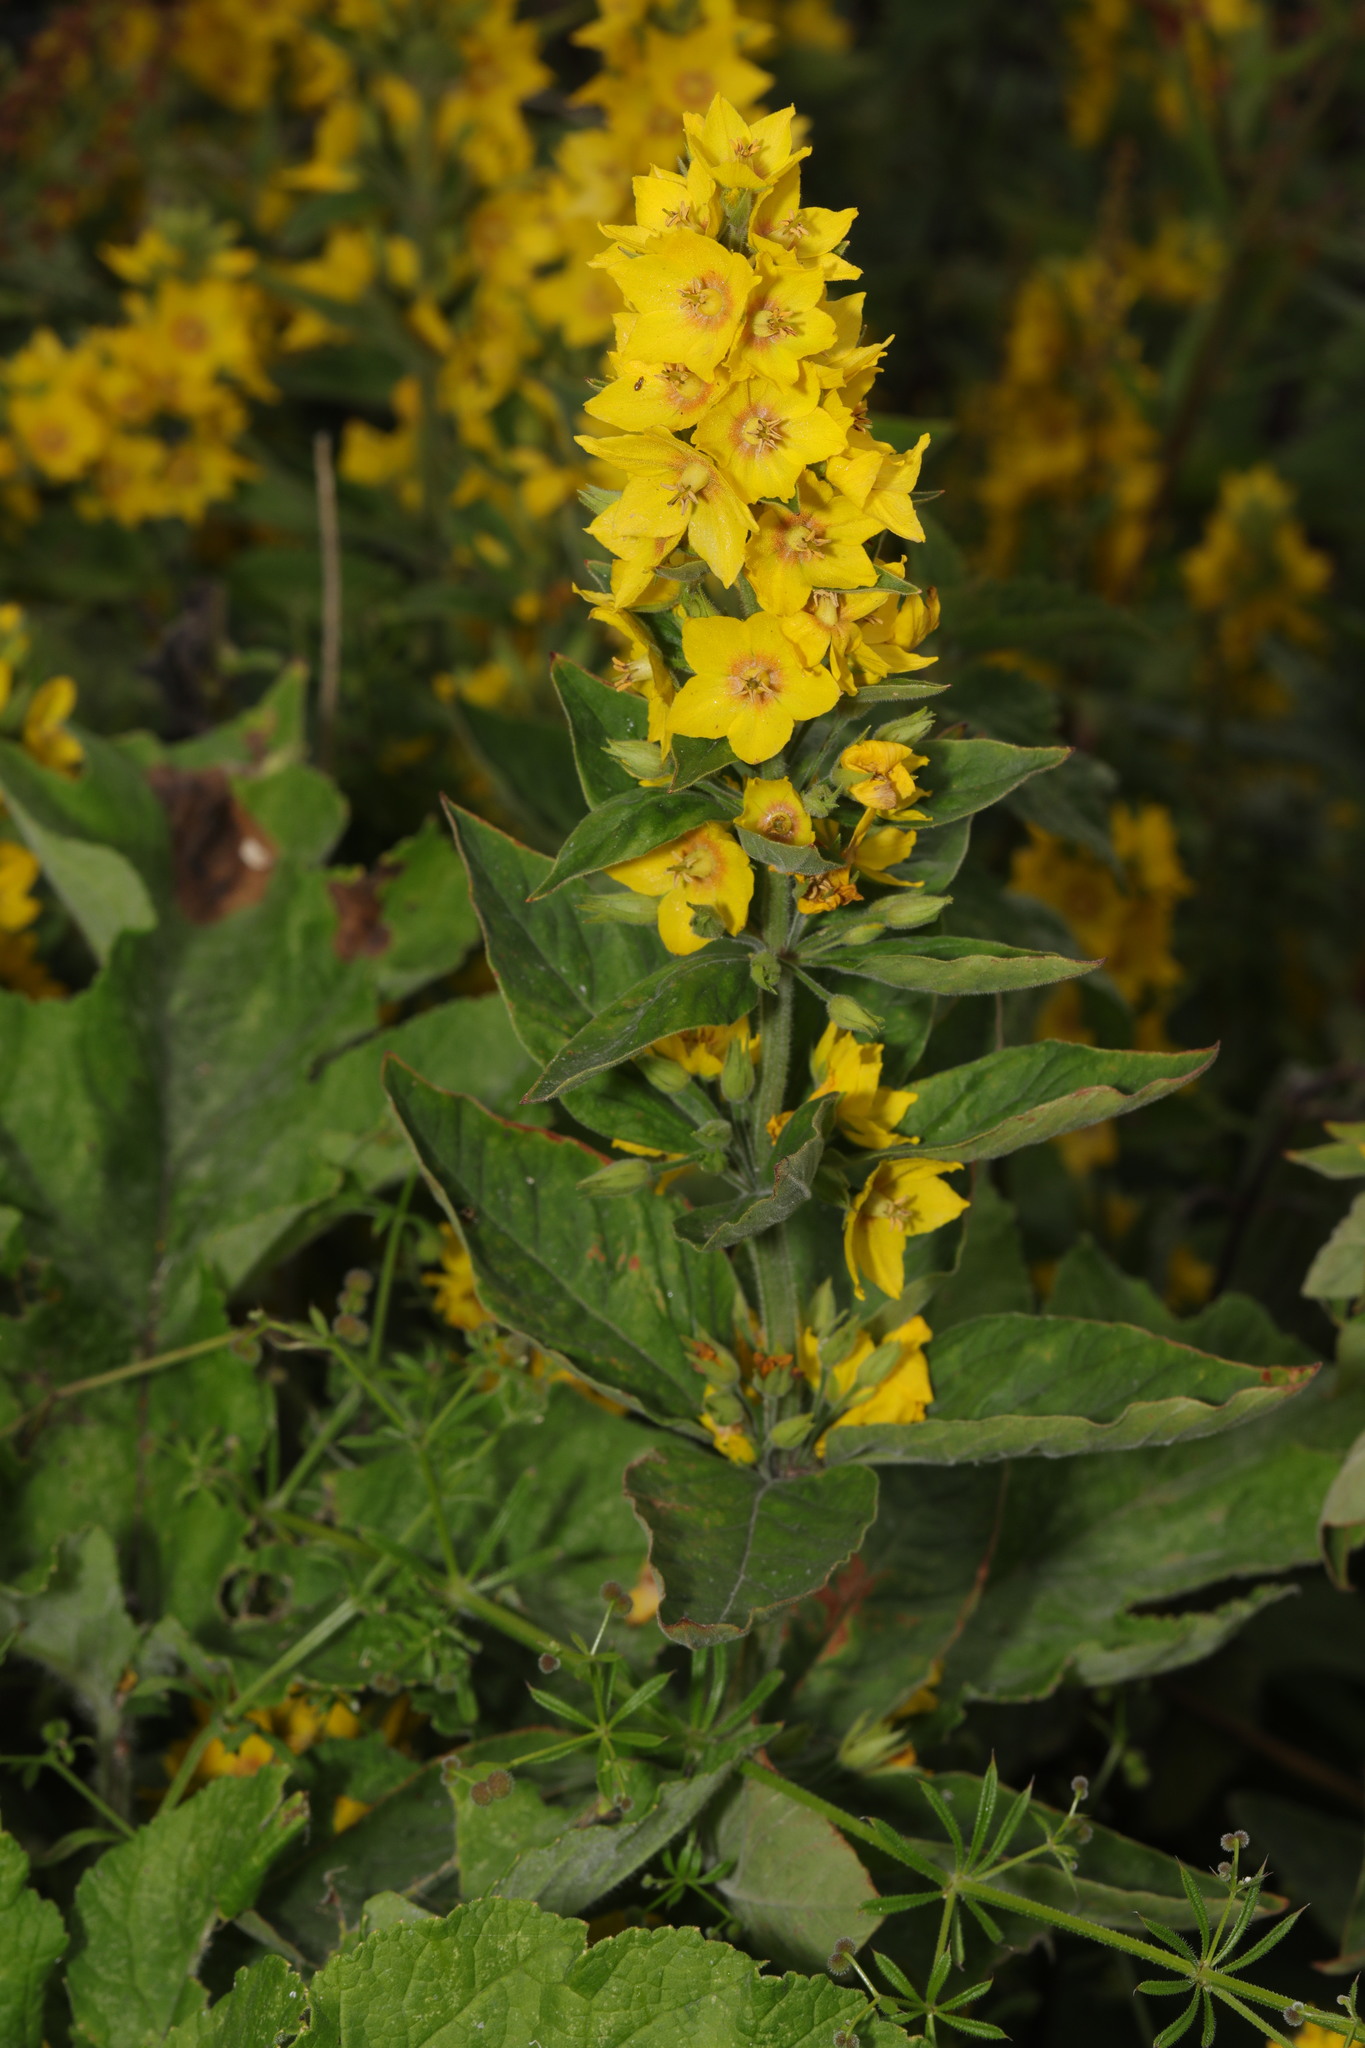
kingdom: Plantae
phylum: Tracheophyta
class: Magnoliopsida
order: Ericales
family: Primulaceae
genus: Lysimachia
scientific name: Lysimachia punctata
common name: Dotted loosestrife
